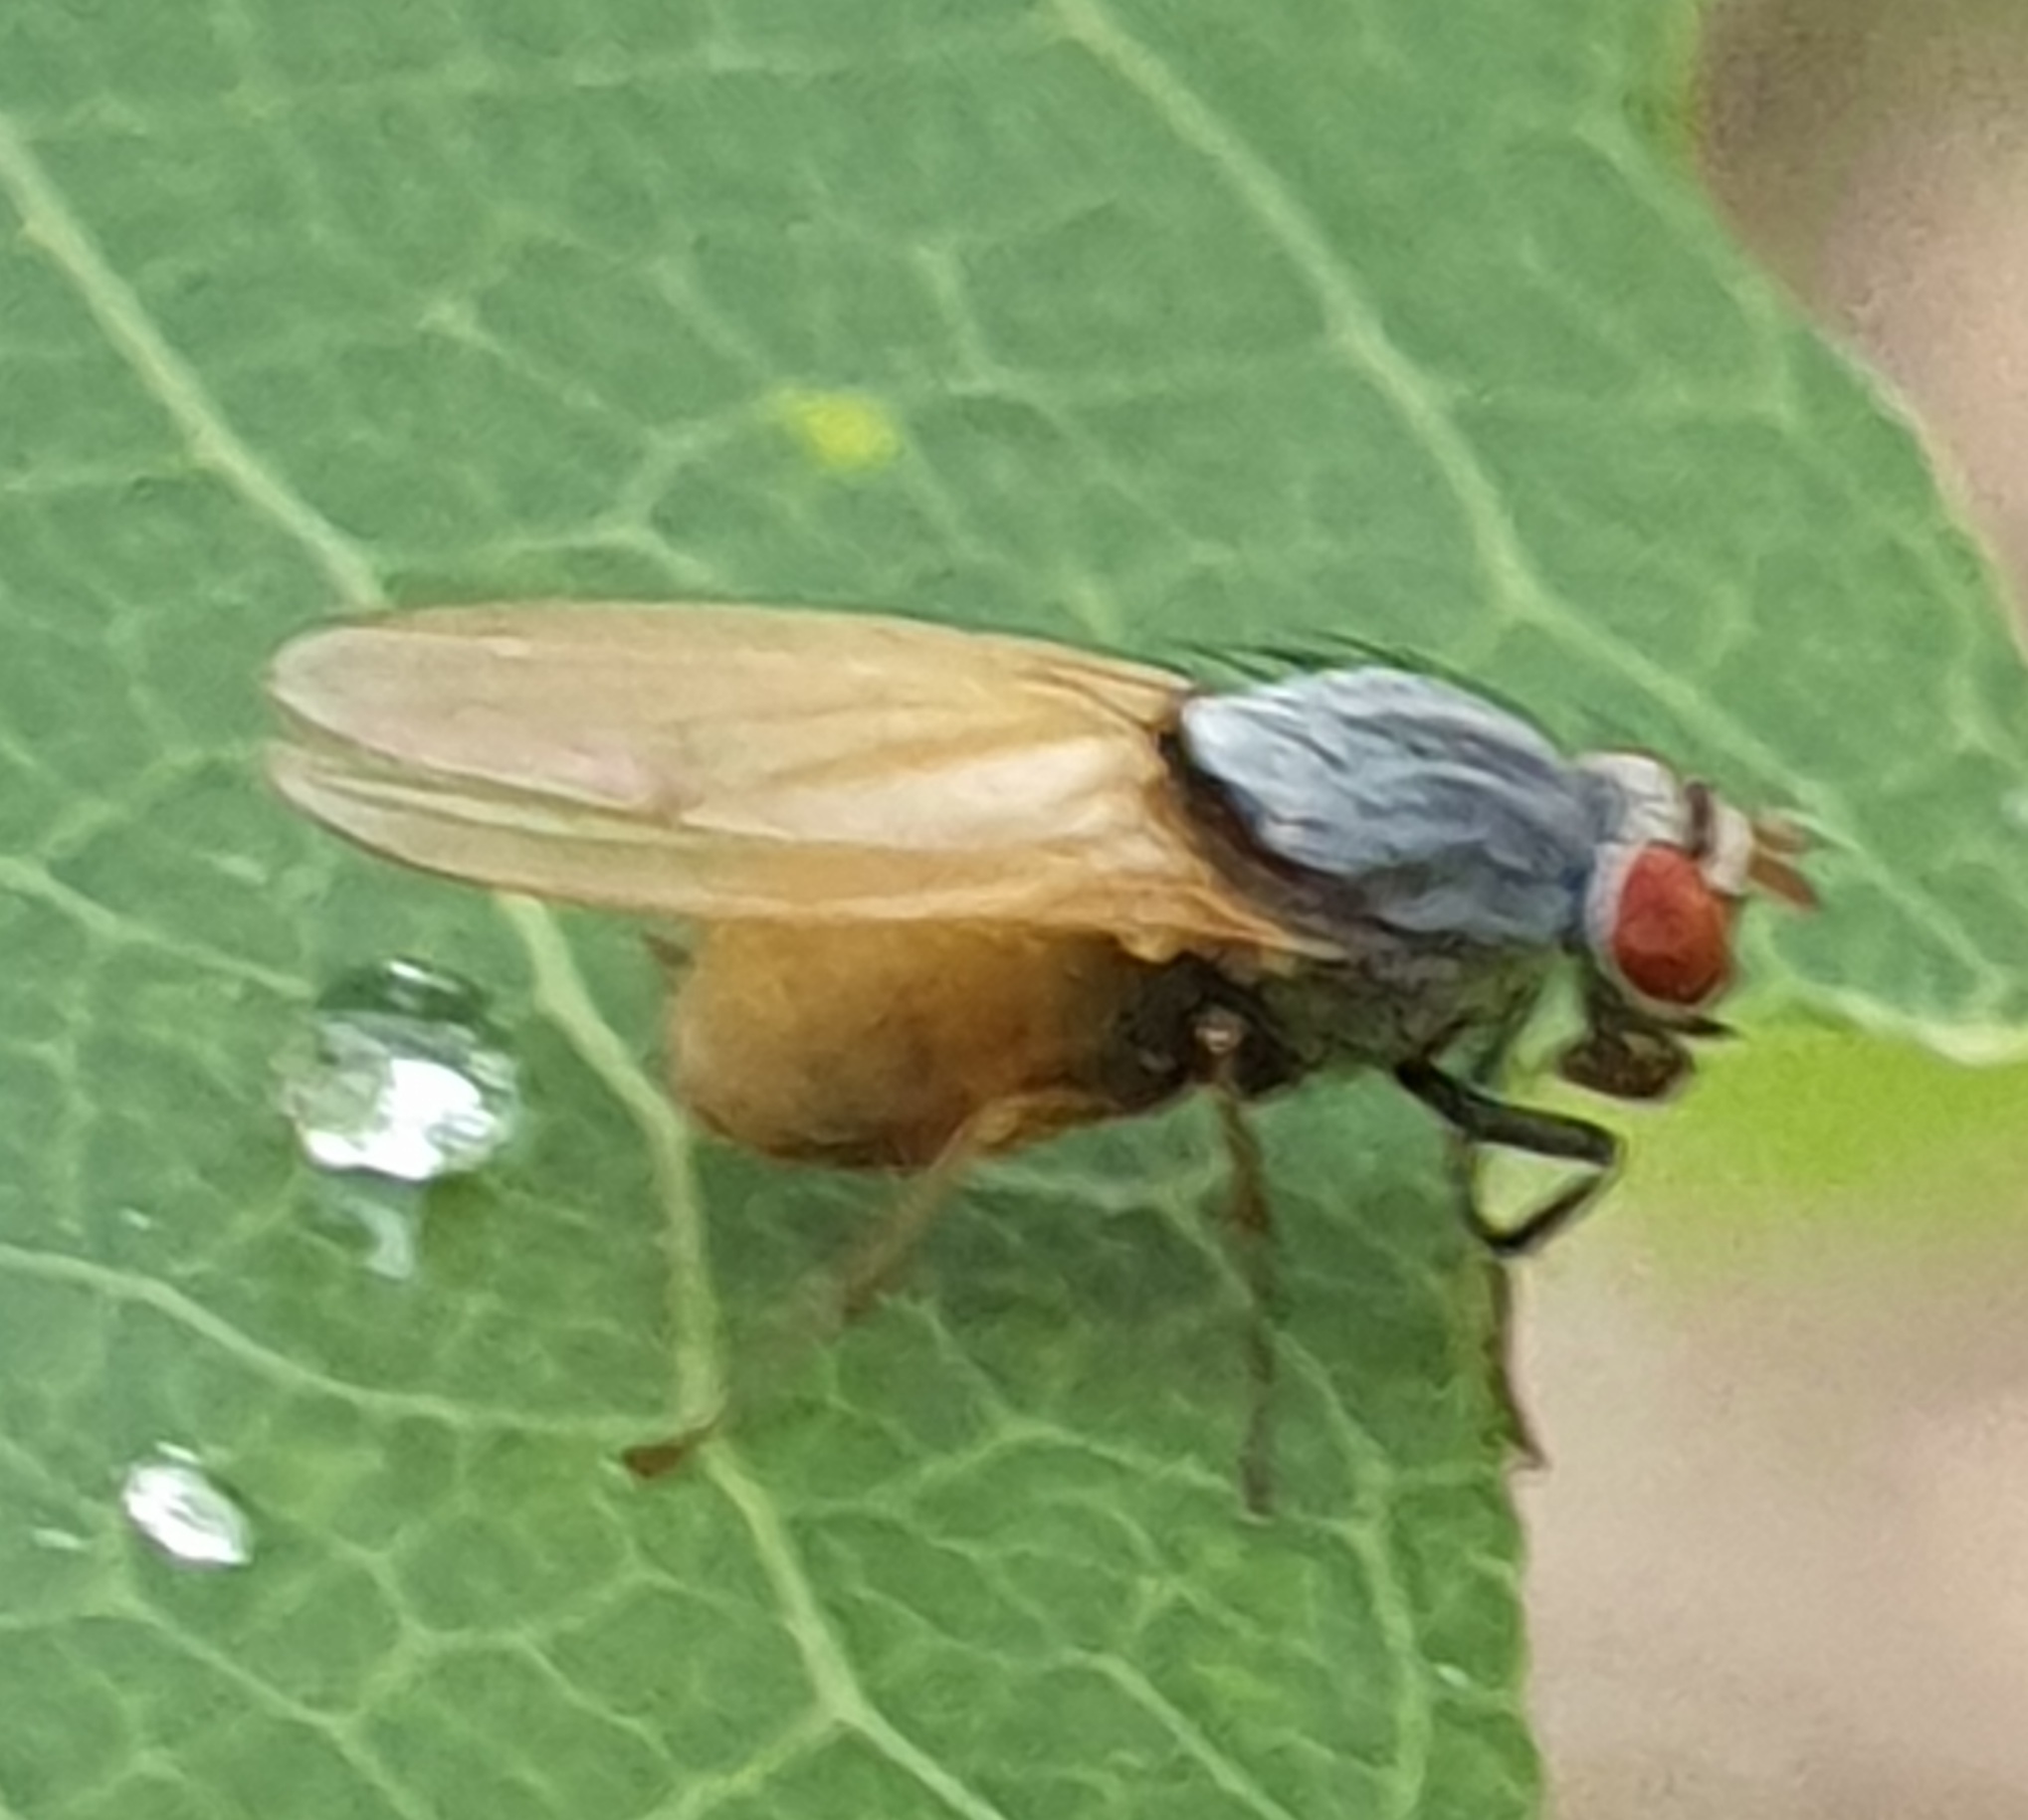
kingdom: Animalia
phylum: Arthropoda
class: Insecta
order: Diptera
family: Lauxaniidae
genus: Minettia
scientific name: Minettia lupulina
